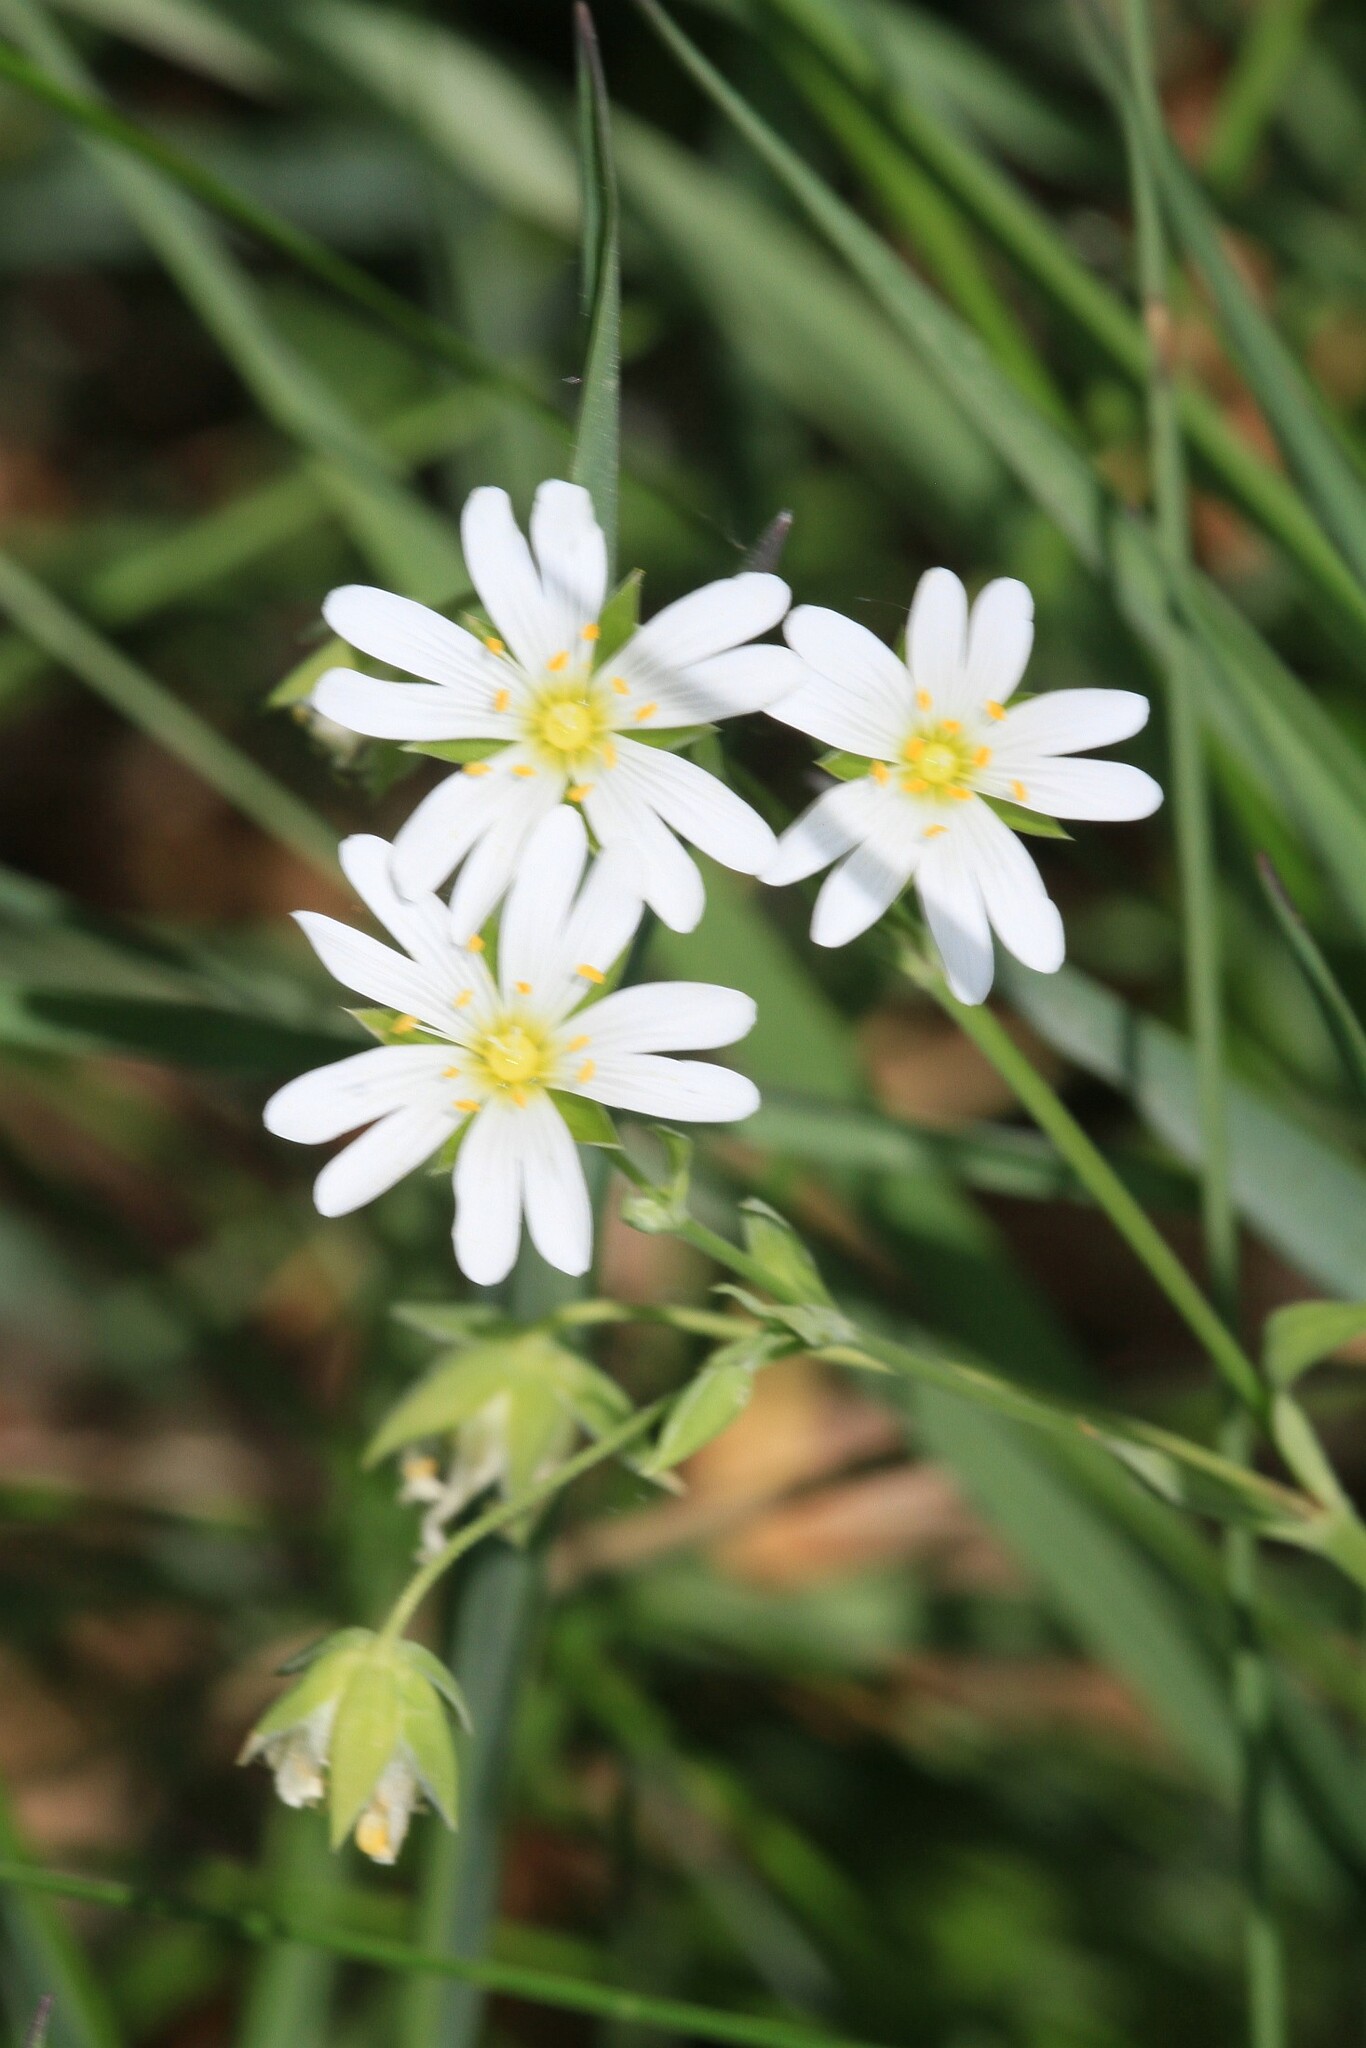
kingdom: Plantae
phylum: Tracheophyta
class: Magnoliopsida
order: Caryophyllales
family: Caryophyllaceae
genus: Rabelera
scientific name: Rabelera holostea
